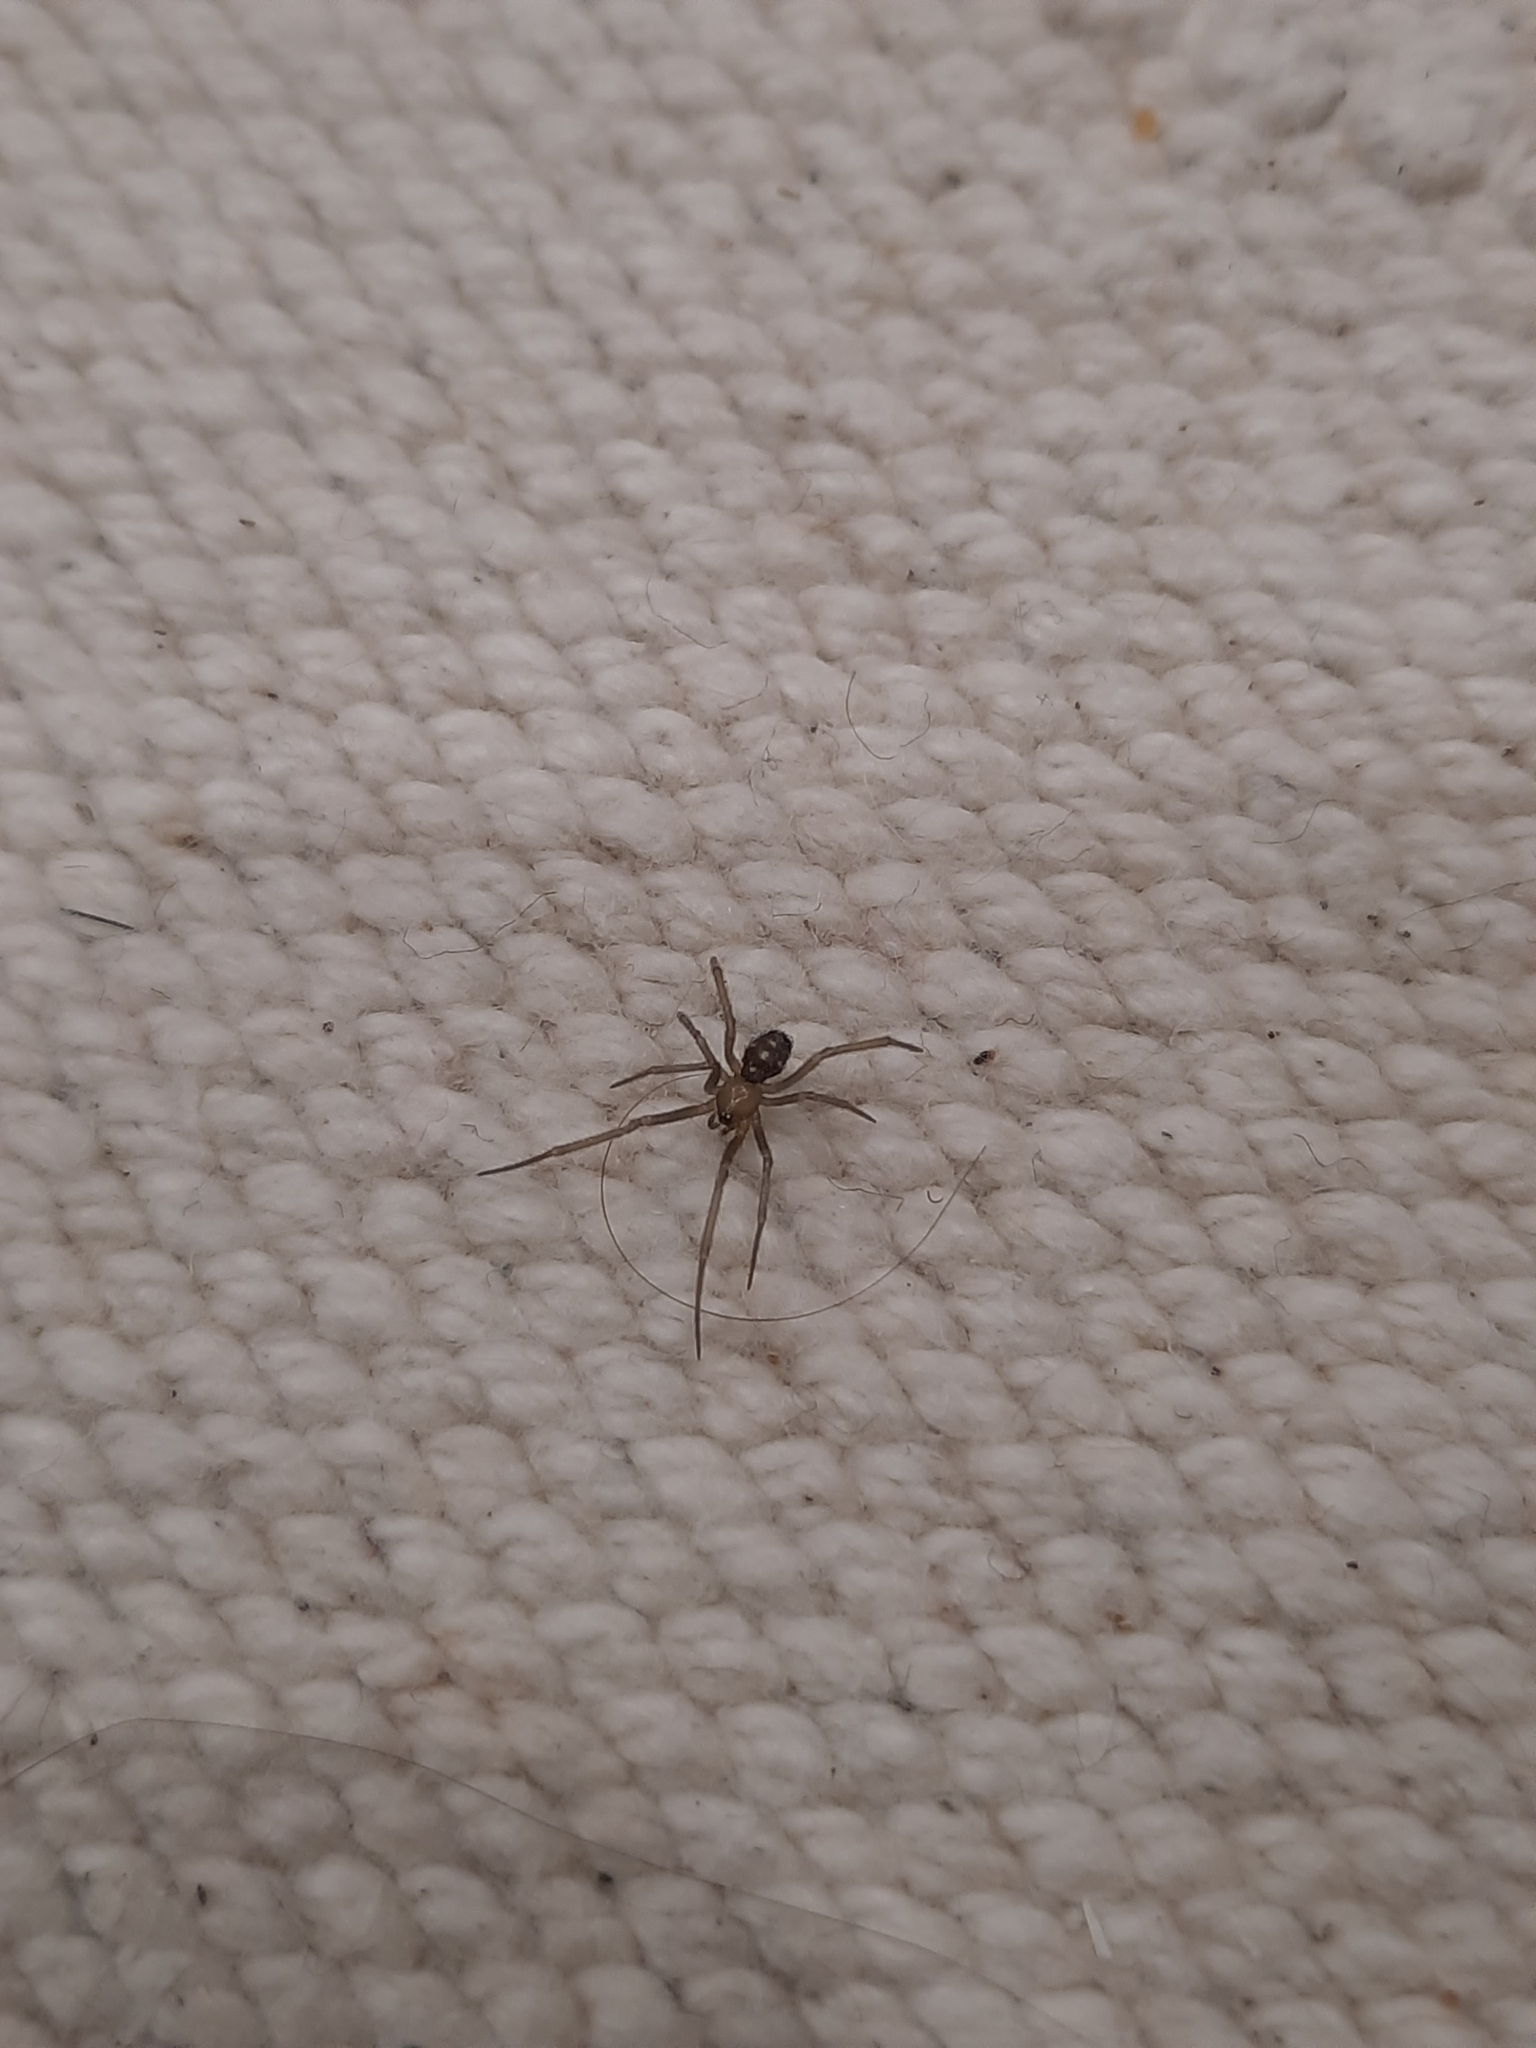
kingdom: Animalia
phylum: Arthropoda
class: Arachnida
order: Araneae
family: Theridiidae
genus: Steatoda
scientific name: Steatoda grossa
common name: False black widow
